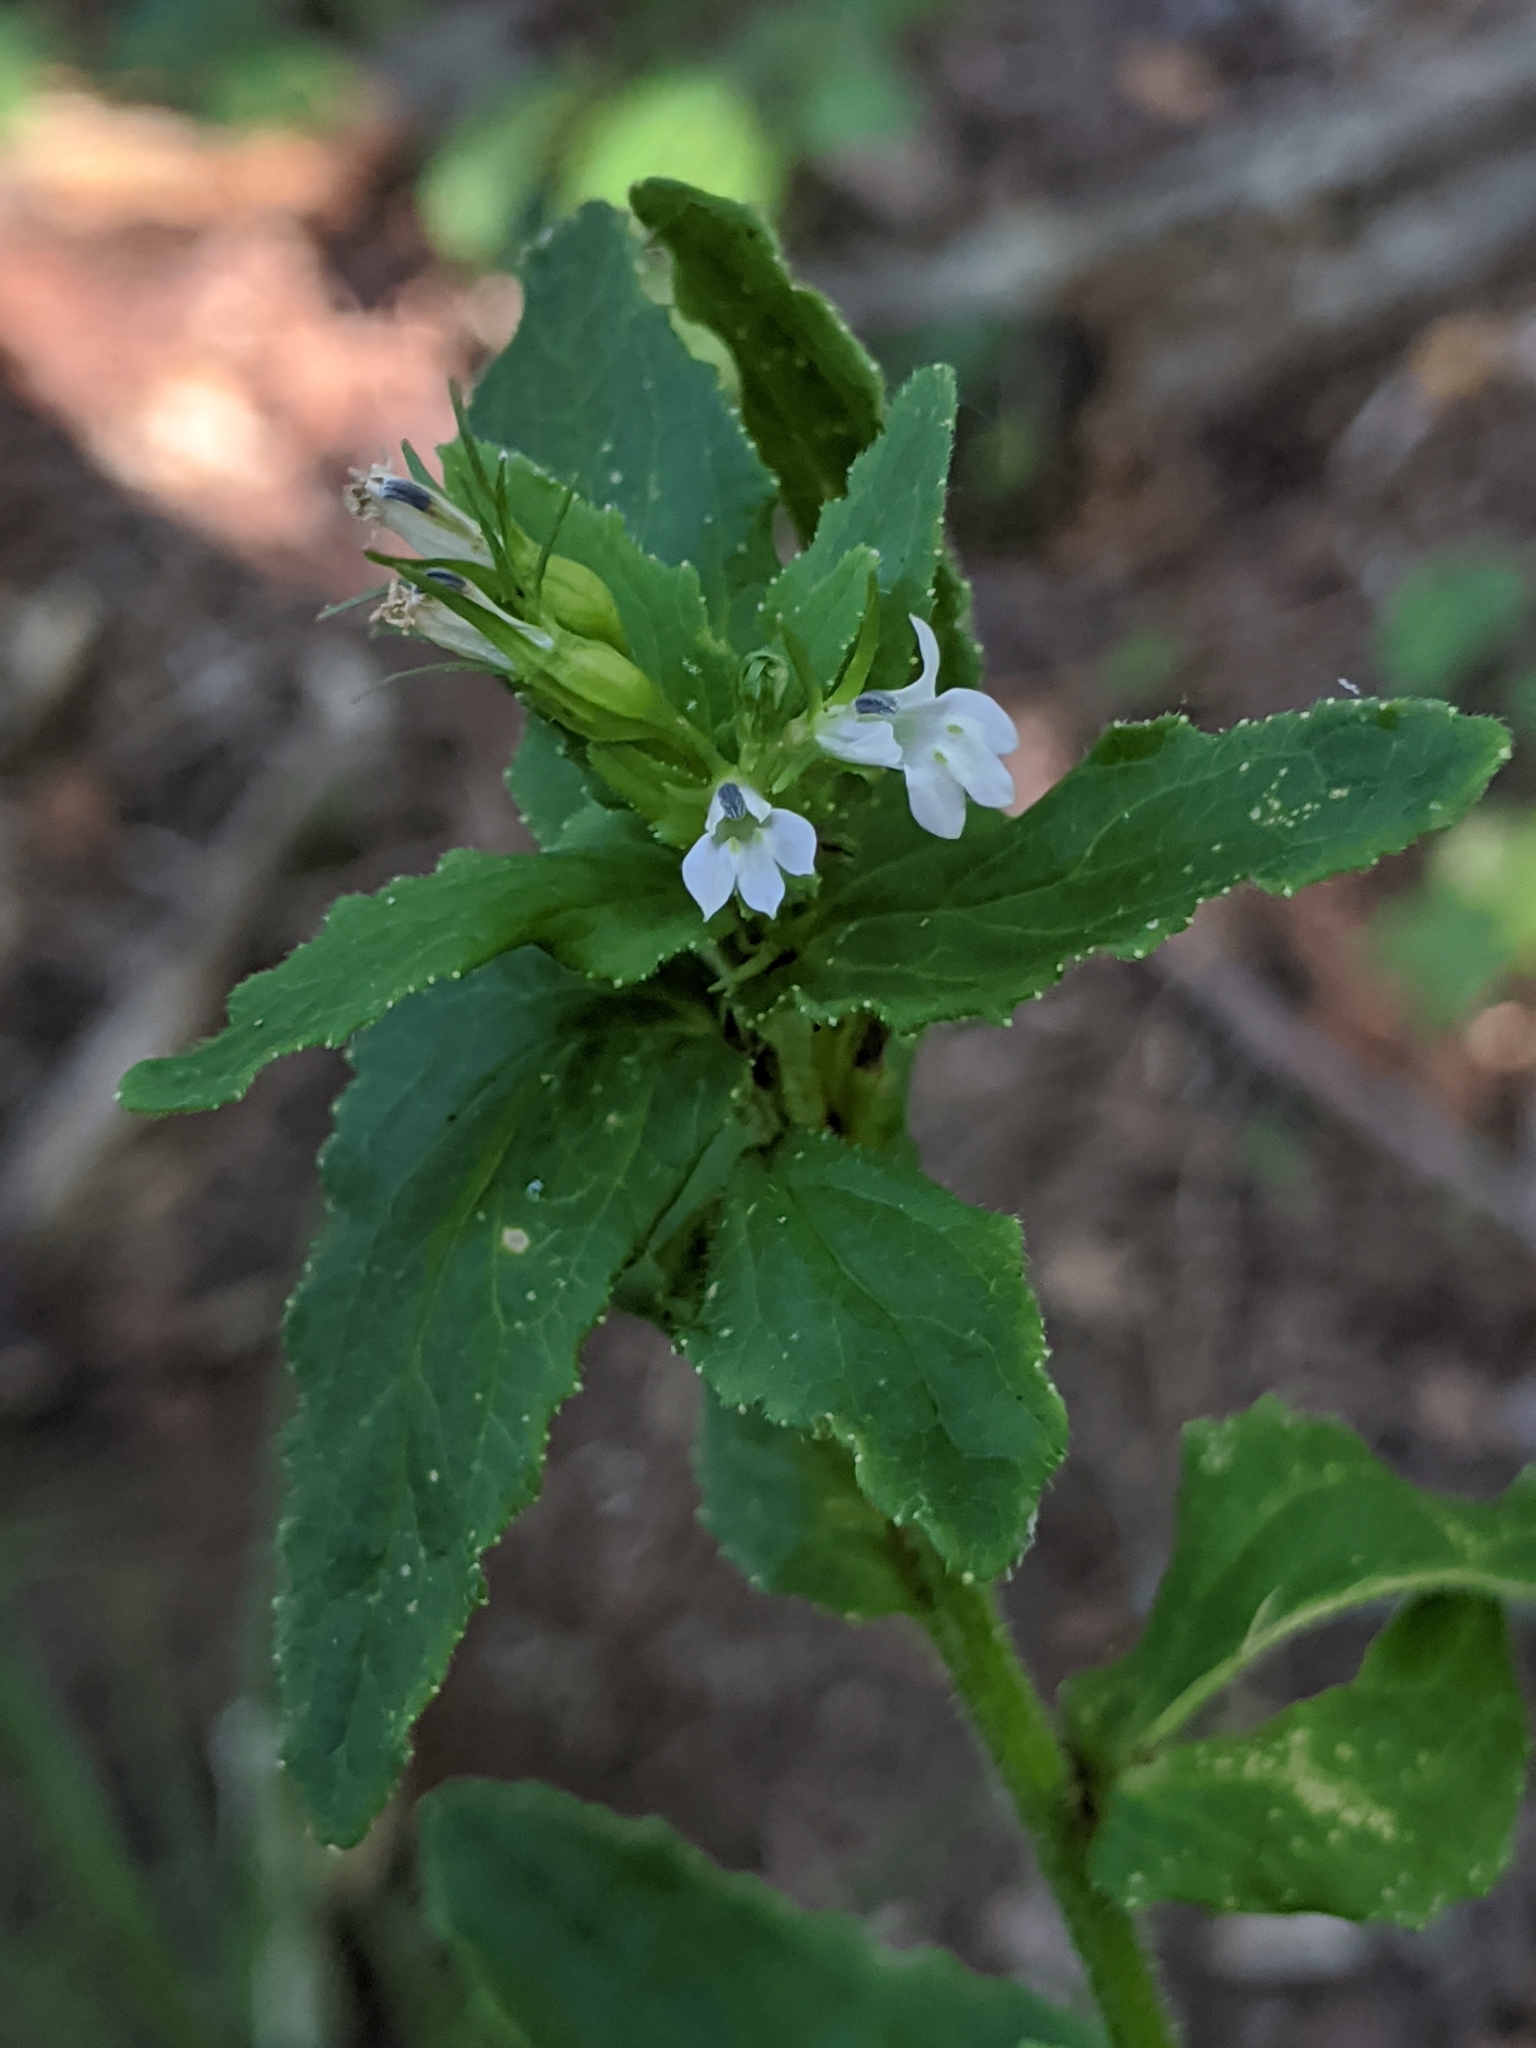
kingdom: Plantae
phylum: Tracheophyta
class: Magnoliopsida
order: Asterales
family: Campanulaceae
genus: Lobelia
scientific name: Lobelia inflata
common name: Indian tobacco
